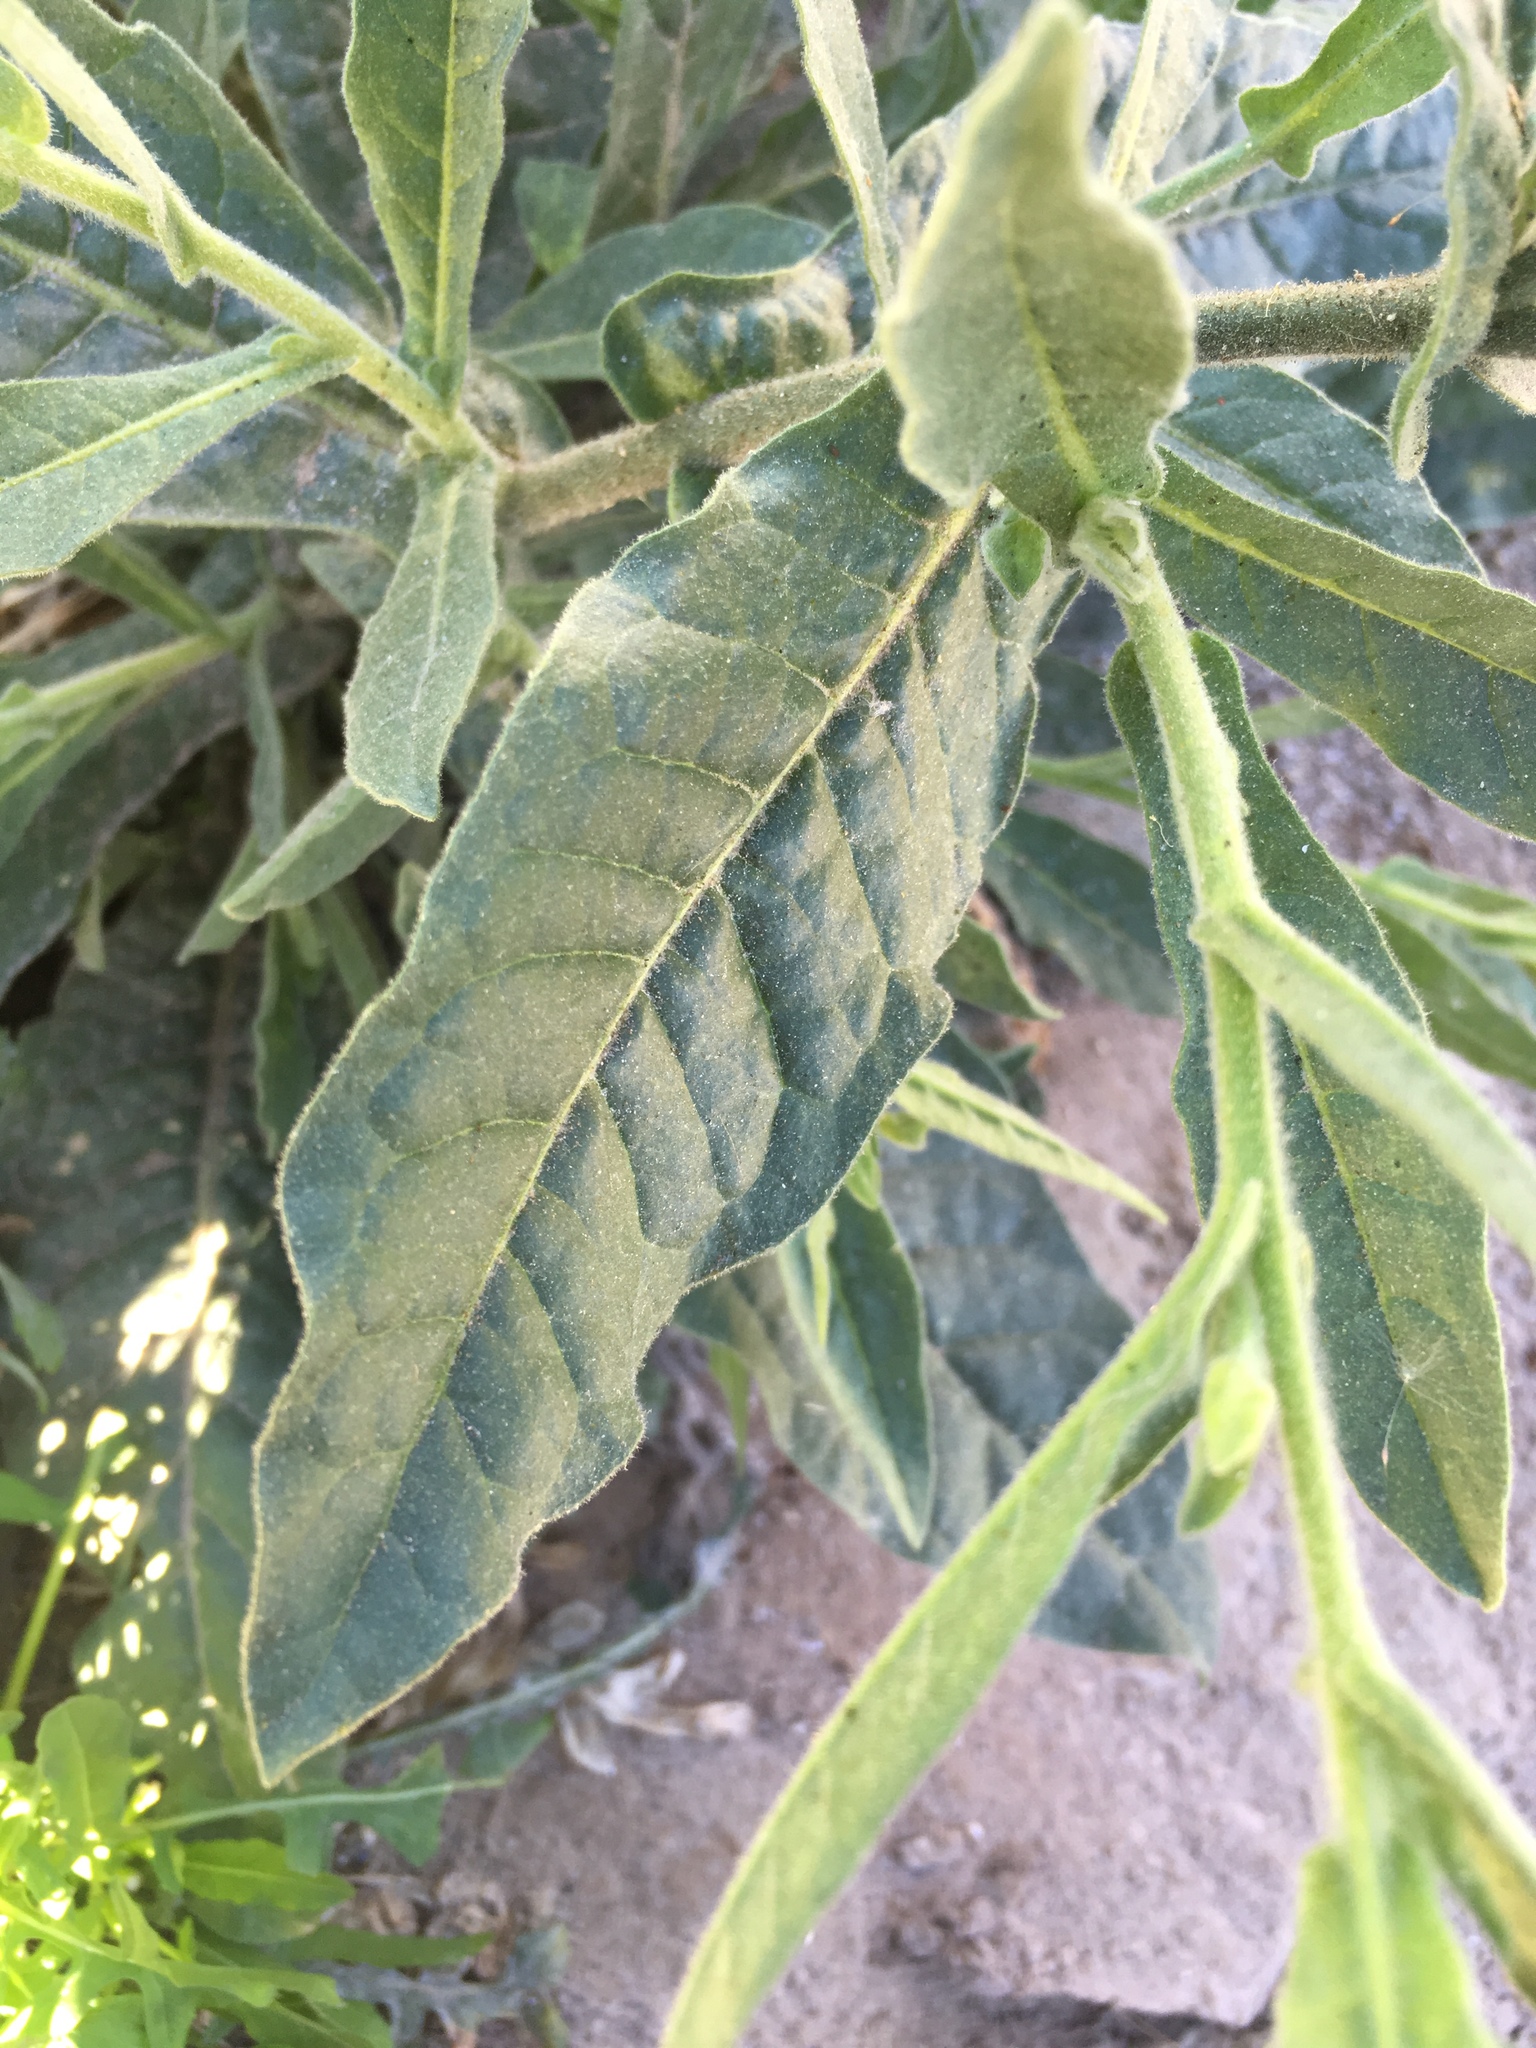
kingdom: Plantae
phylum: Tracheophyta
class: Magnoliopsida
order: Solanales
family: Solanaceae
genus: Nicotiana
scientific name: Nicotiana obtusifolia
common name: Desert tobacco
